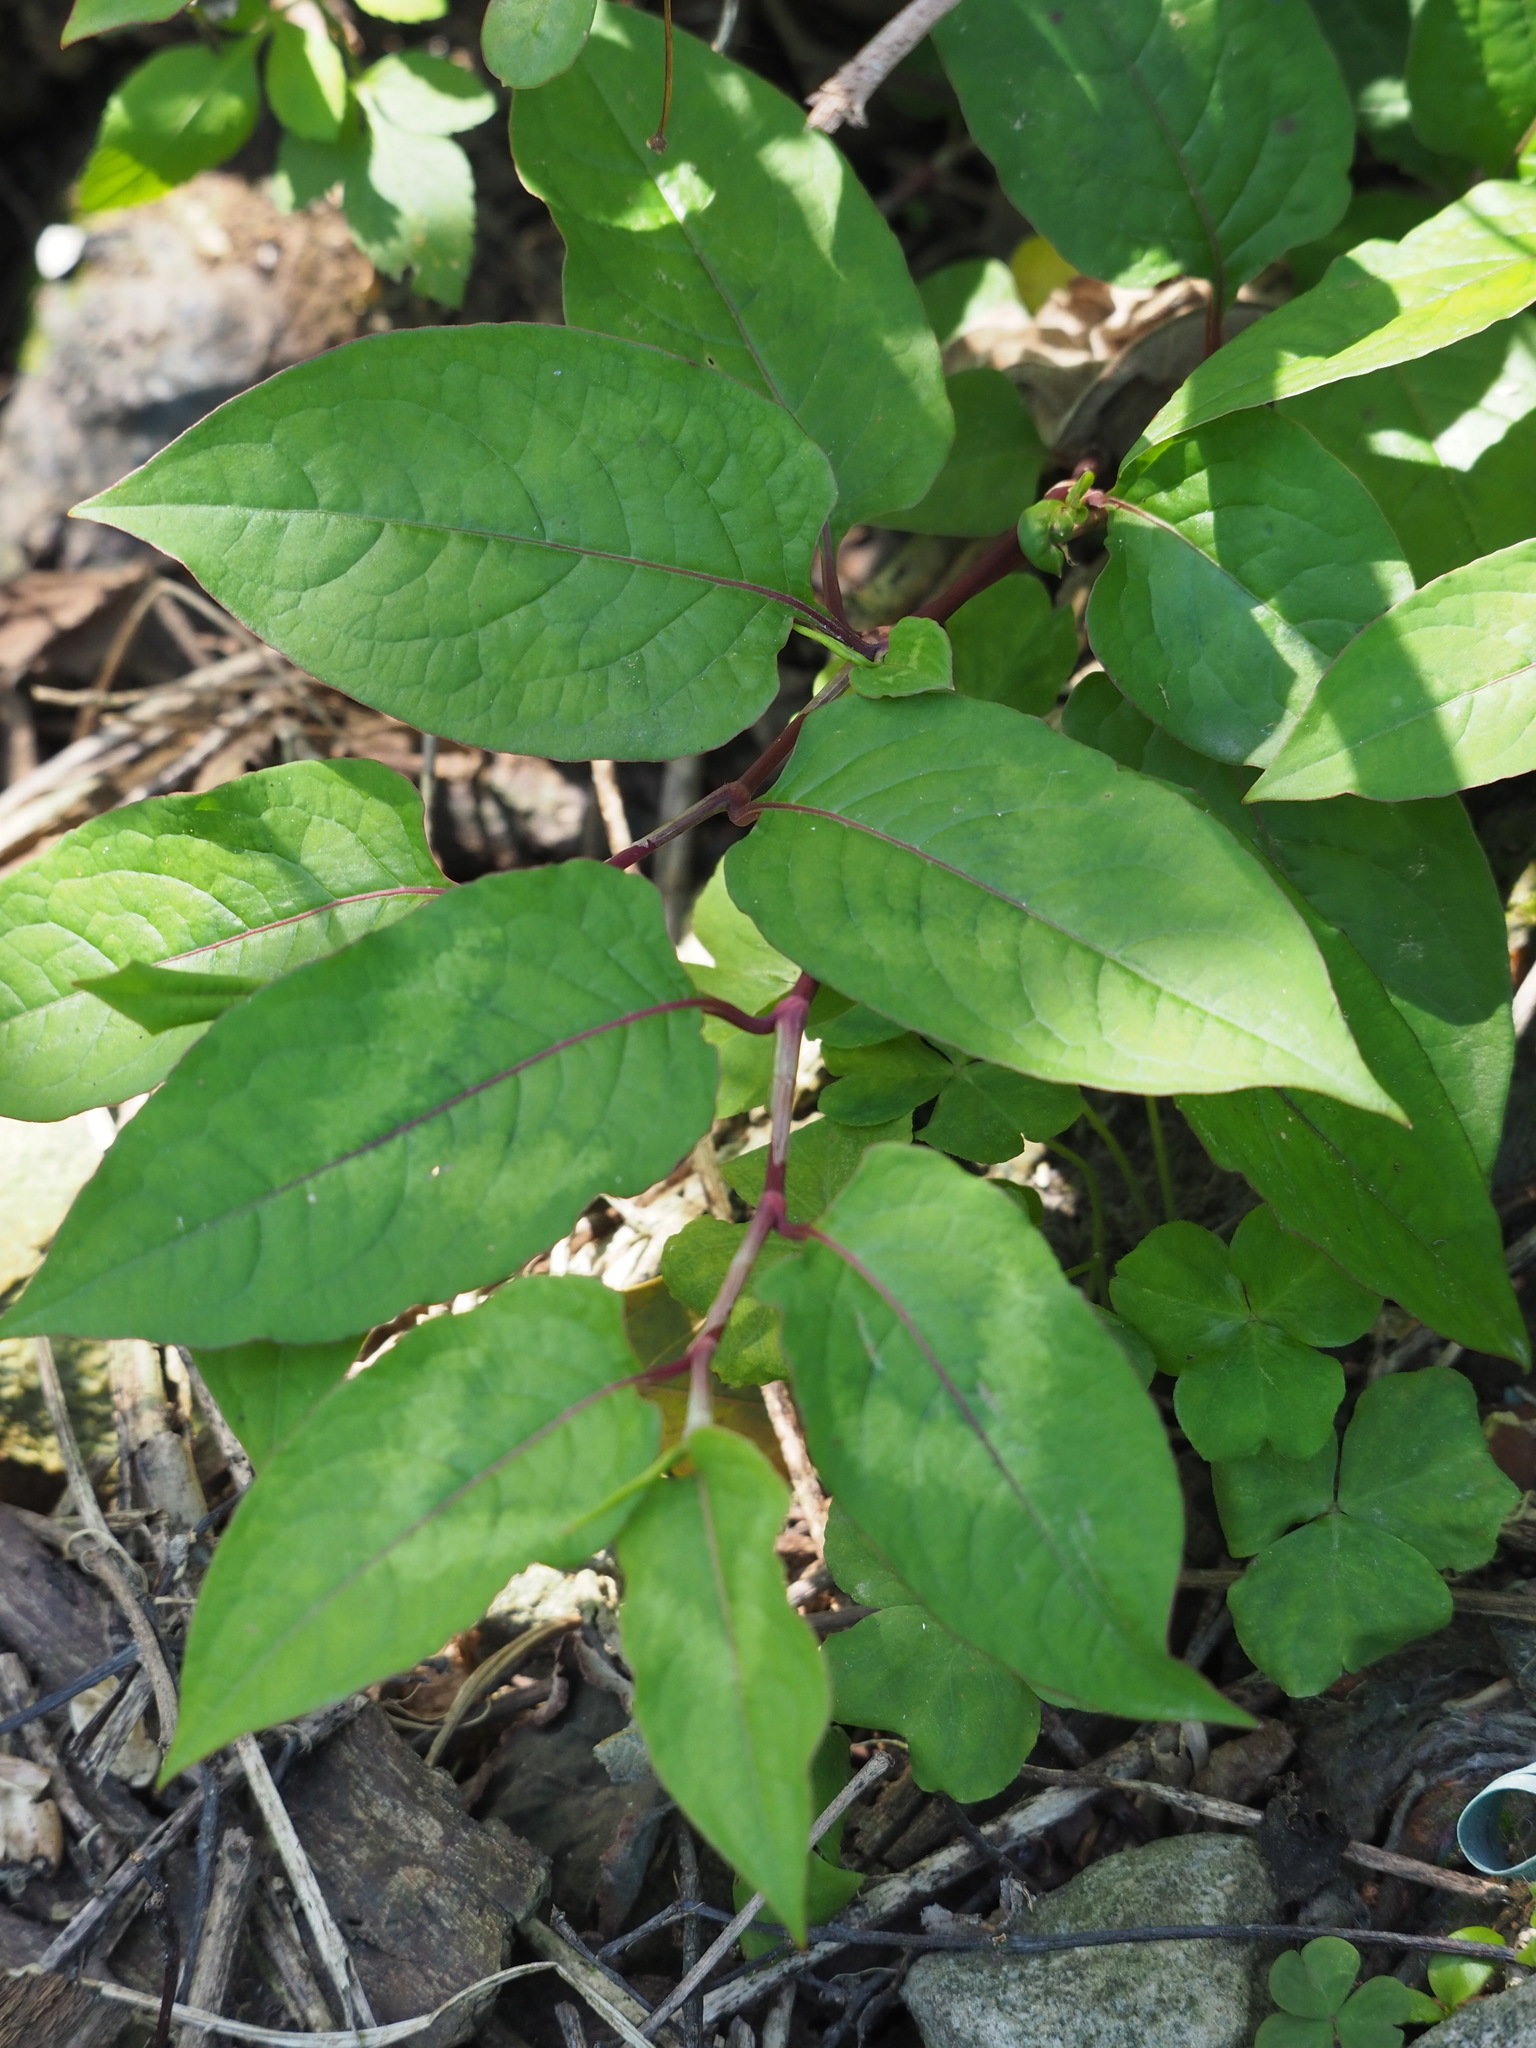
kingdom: Plantae
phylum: Tracheophyta
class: Magnoliopsida
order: Caryophyllales
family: Polygonaceae
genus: Persicaria
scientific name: Persicaria chinensis
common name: Chinese knotweed
